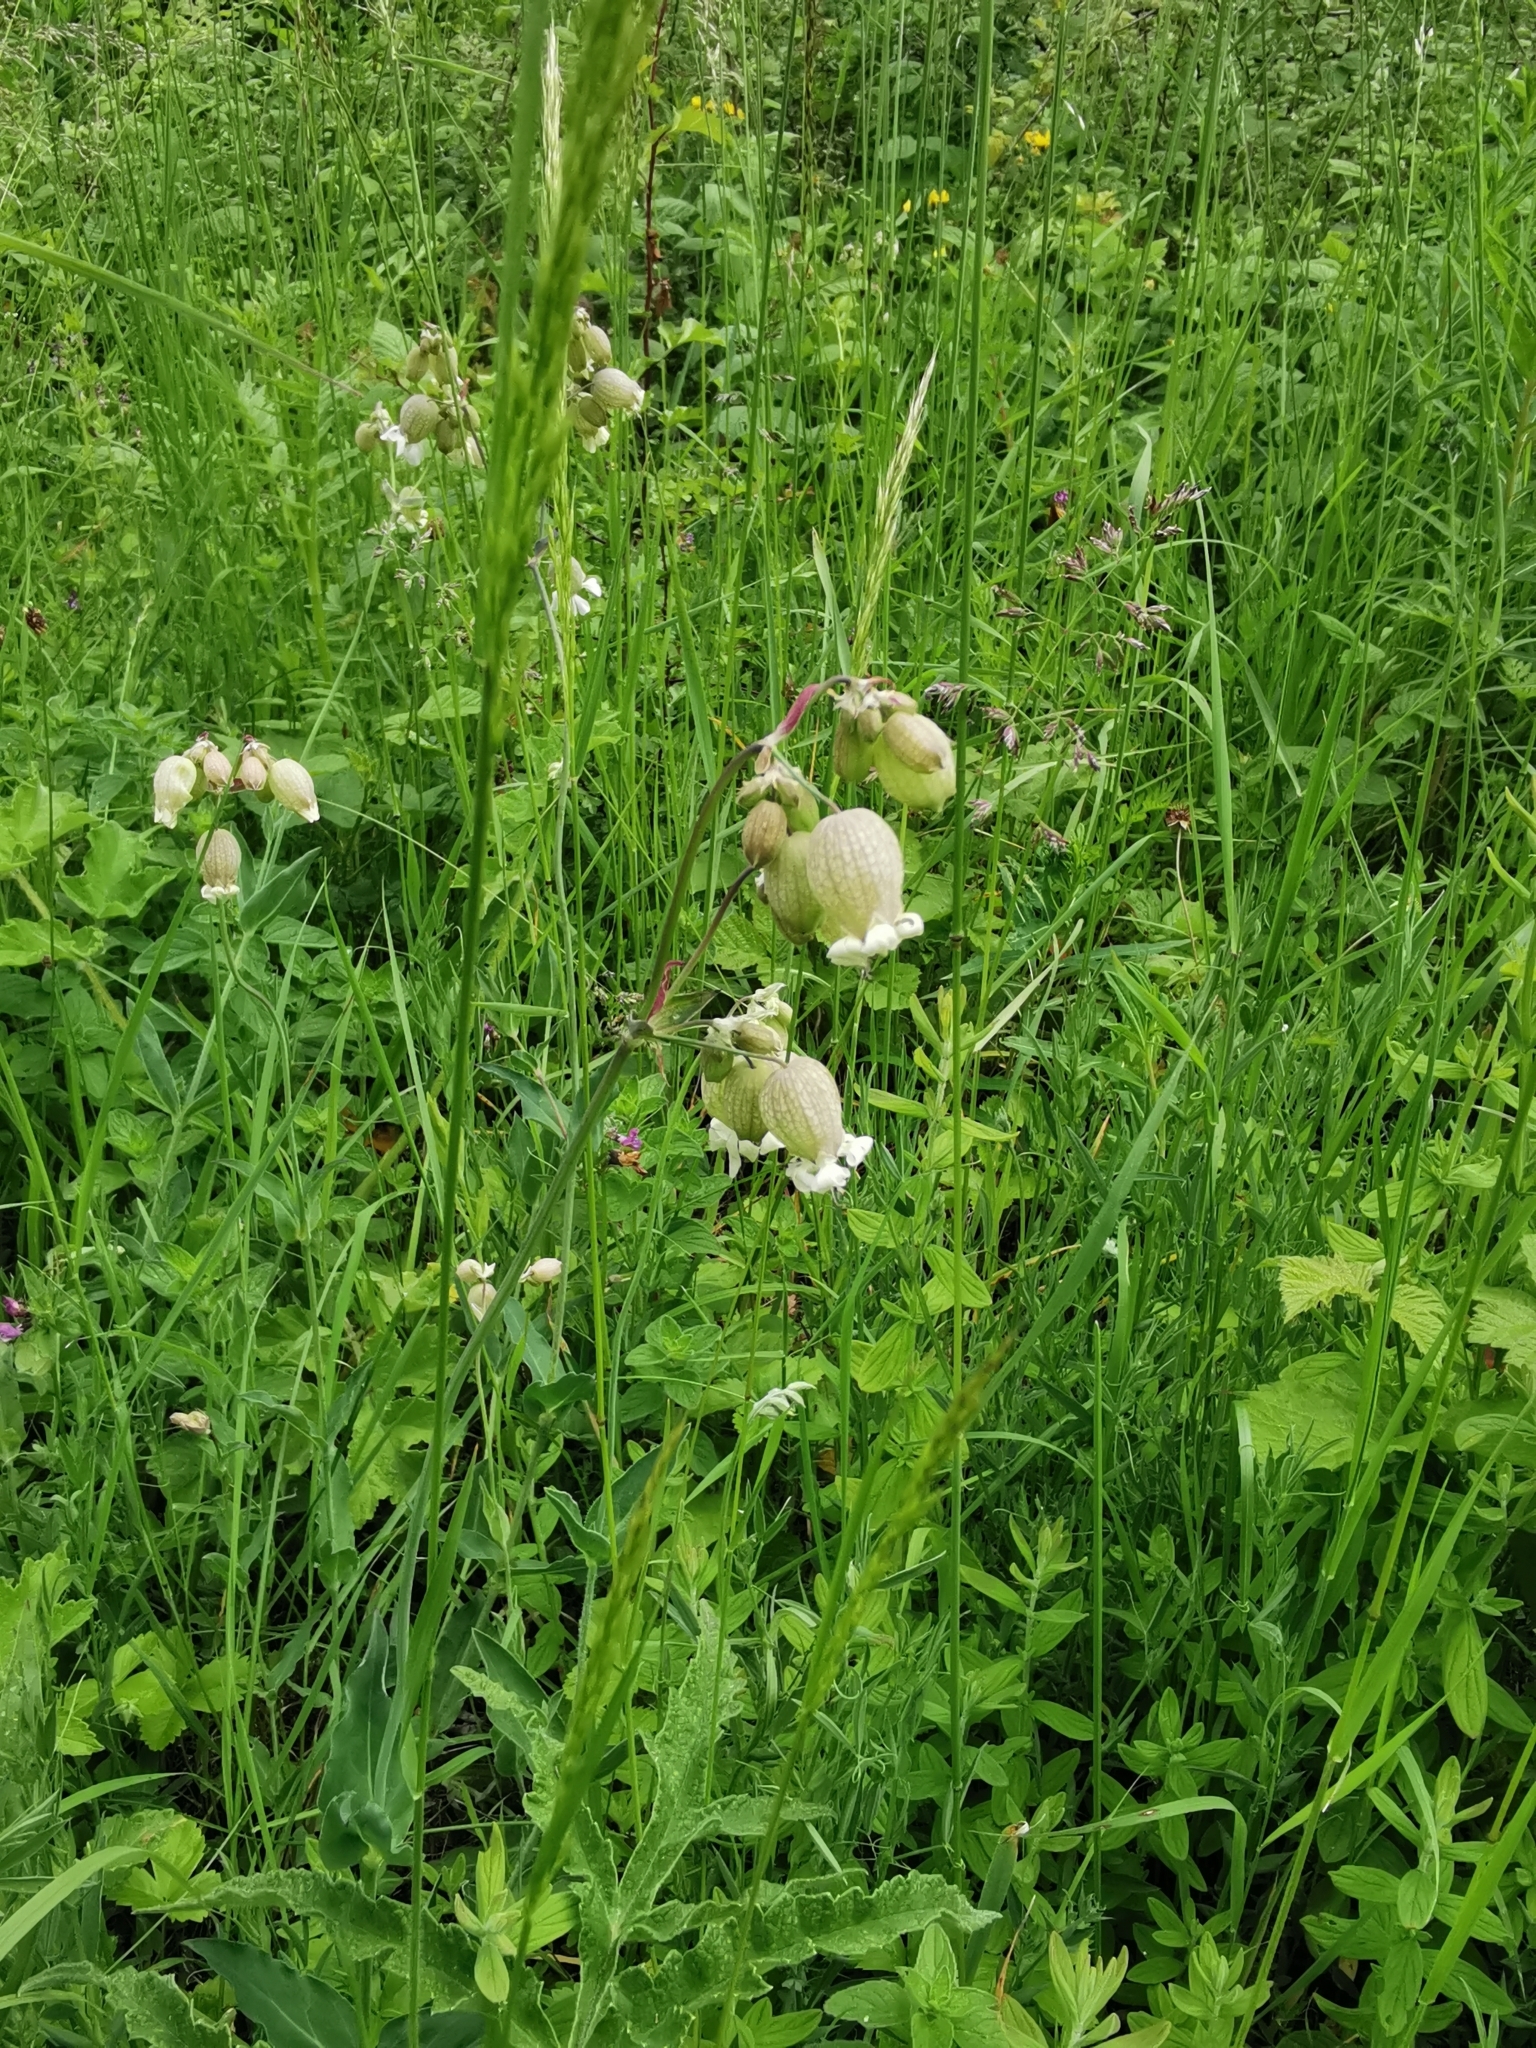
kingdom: Plantae
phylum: Tracheophyta
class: Magnoliopsida
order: Caryophyllales
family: Caryophyllaceae
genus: Silene
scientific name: Silene vulgaris
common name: Bladder campion
